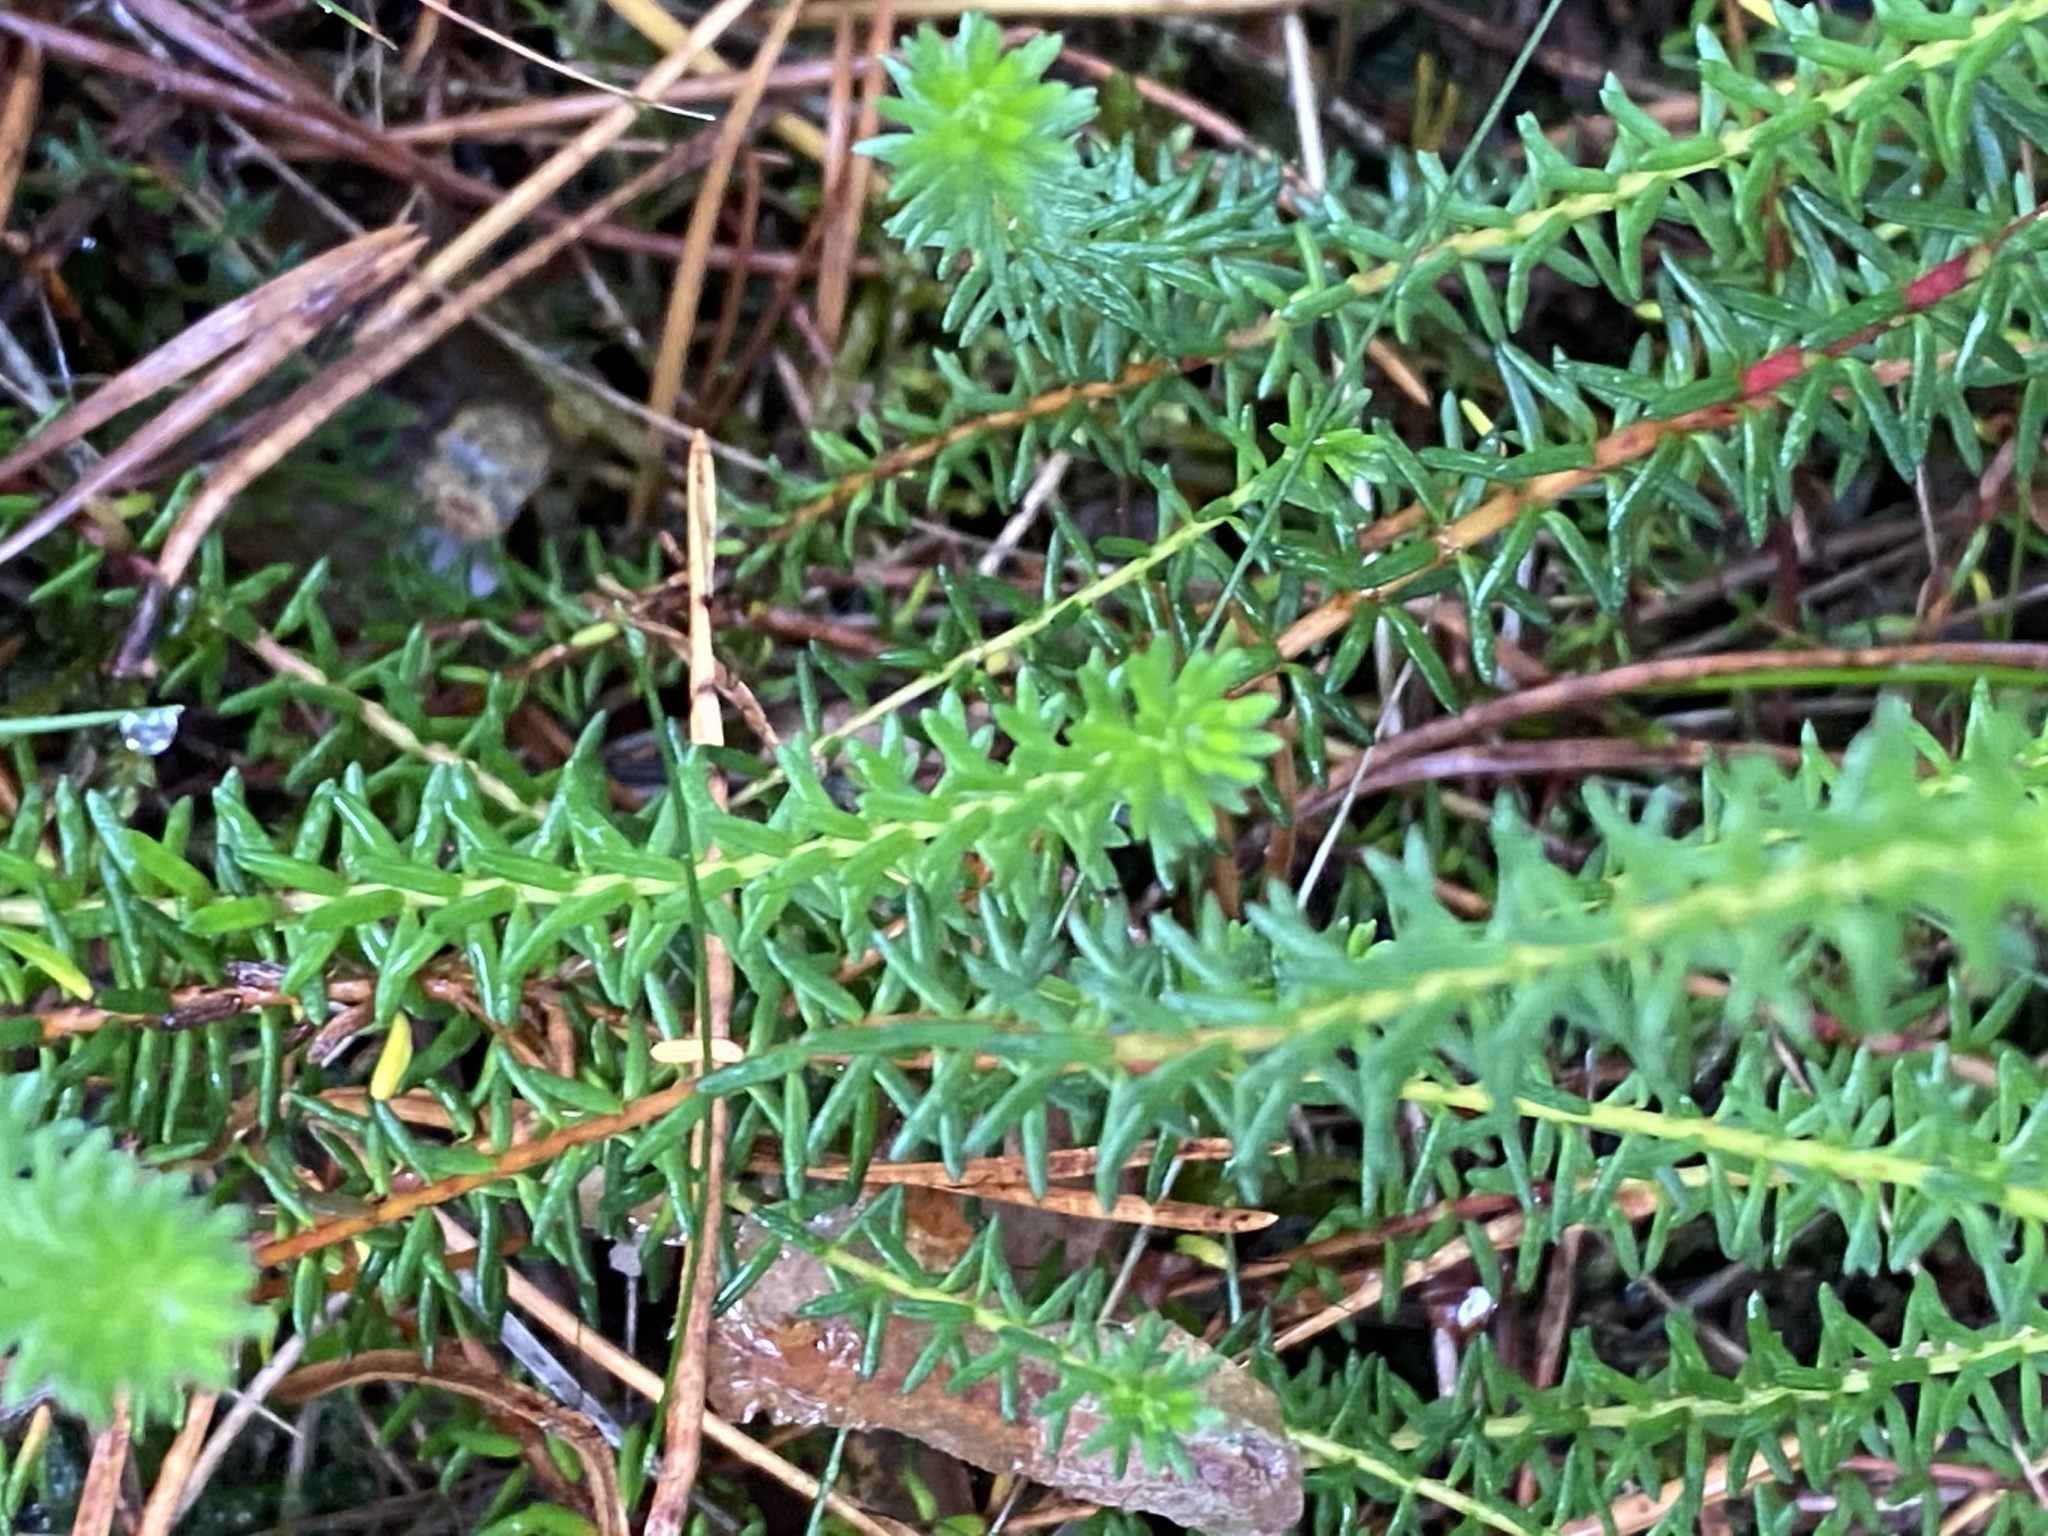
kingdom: Plantae
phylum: Tracheophyta
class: Magnoliopsida
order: Ericales
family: Ericaceae
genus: Calluna
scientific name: Calluna vulgaris
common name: Heather
